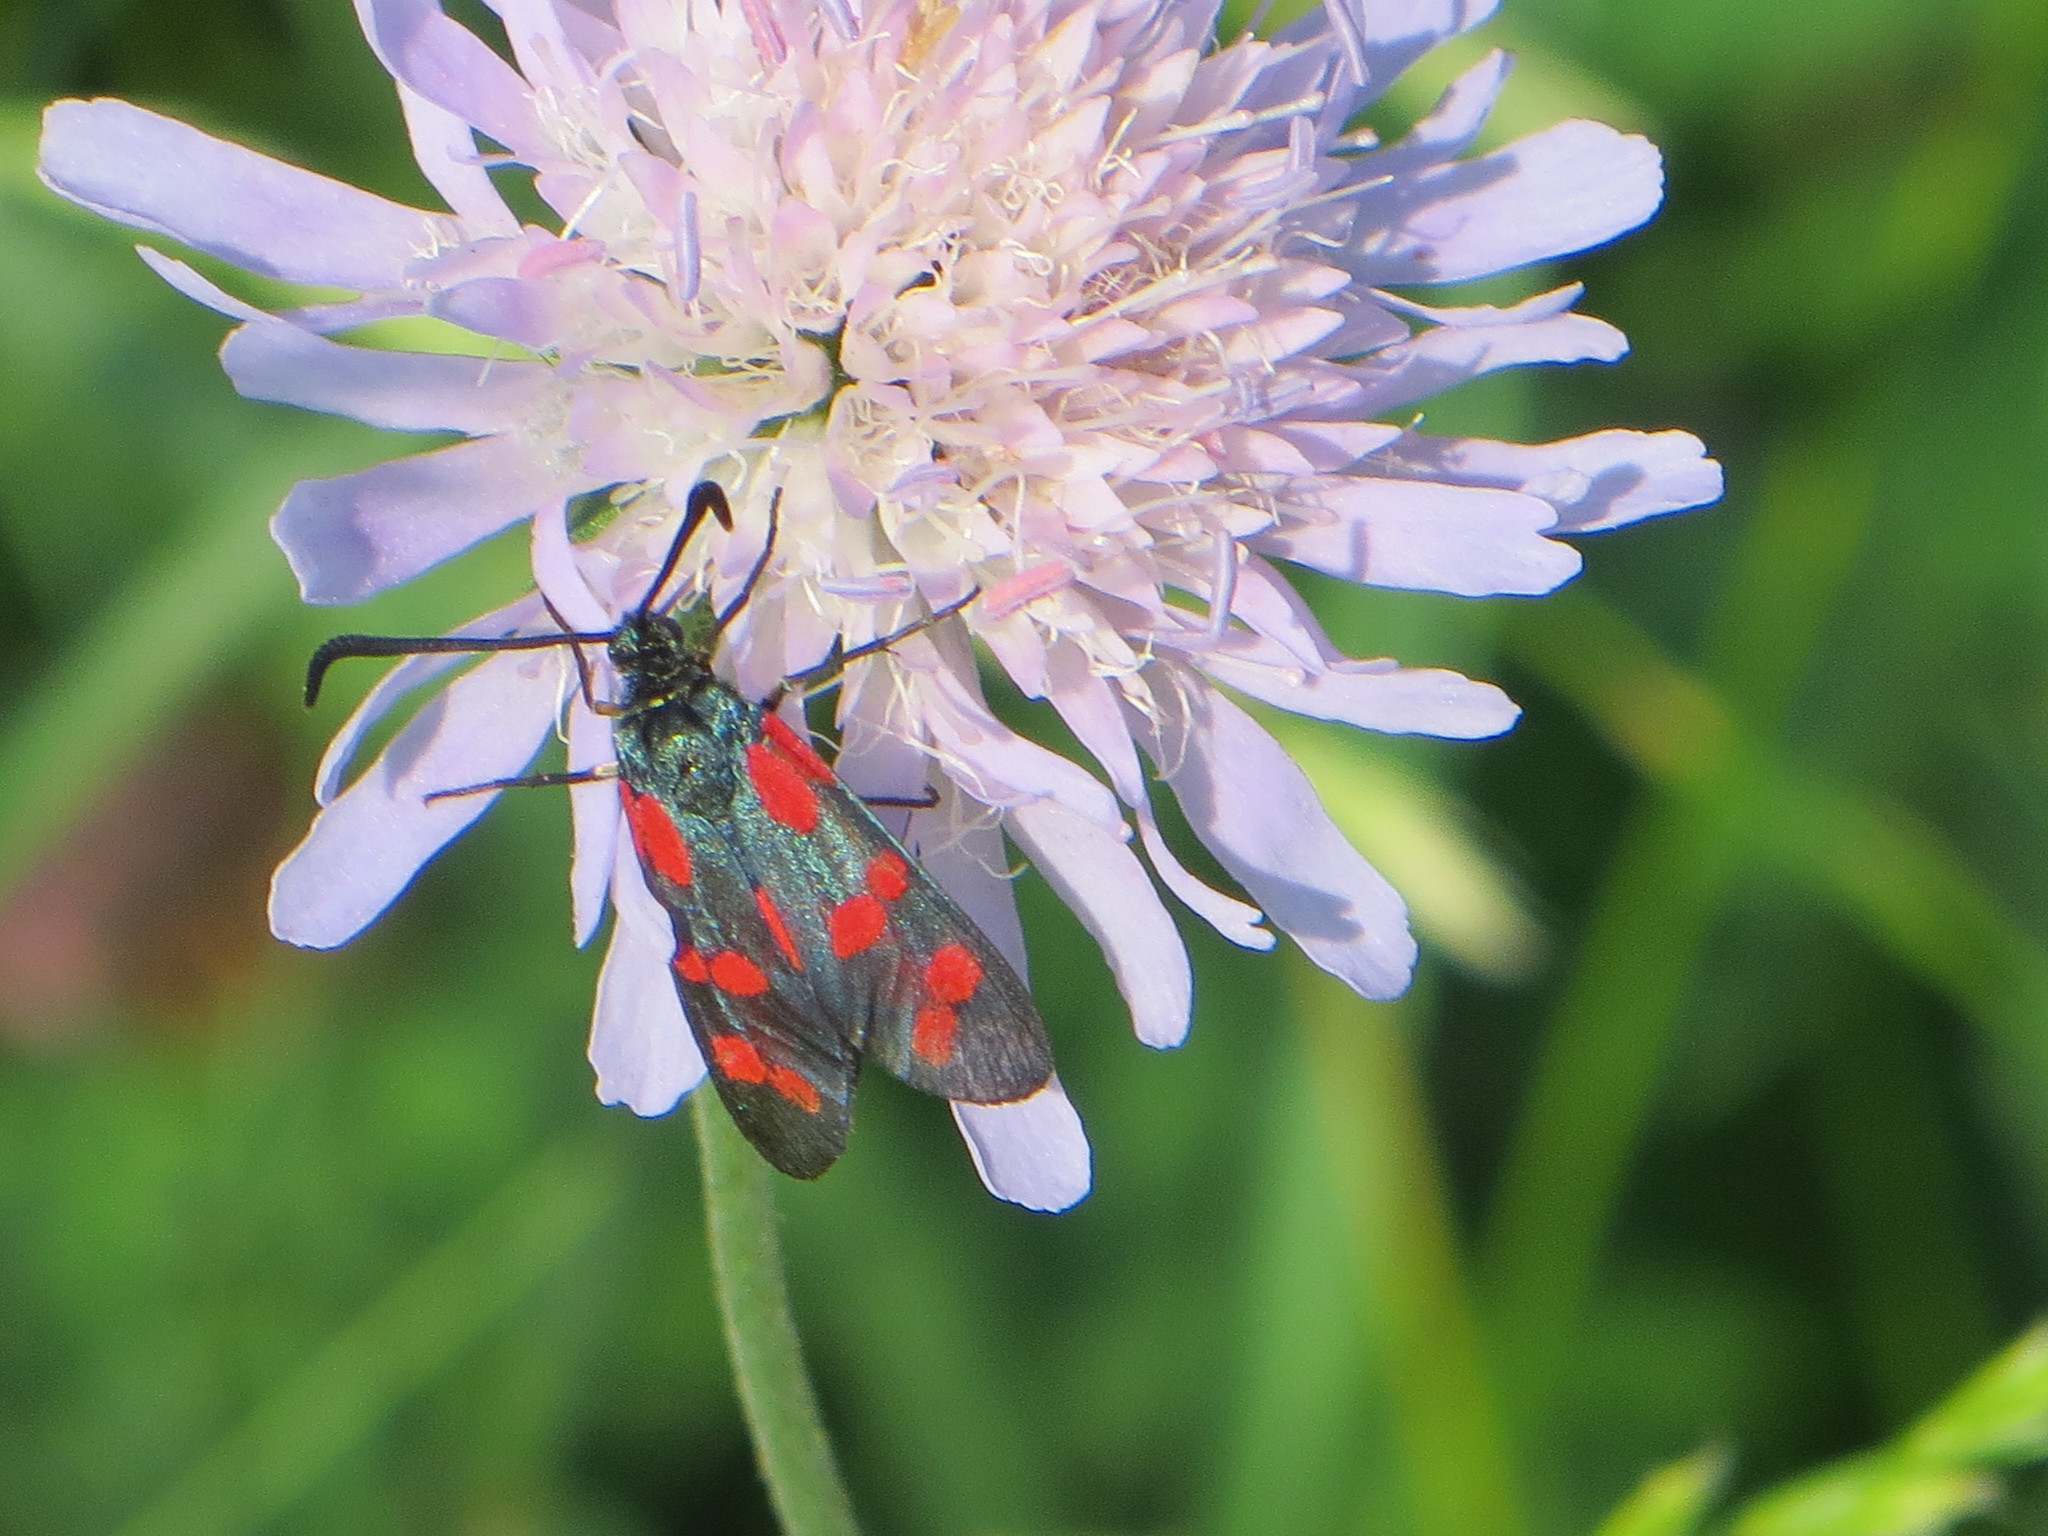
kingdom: Animalia
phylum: Arthropoda
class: Insecta
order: Lepidoptera
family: Zygaenidae
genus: Zygaena
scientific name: Zygaena filipendulae
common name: Six-spot burnet
